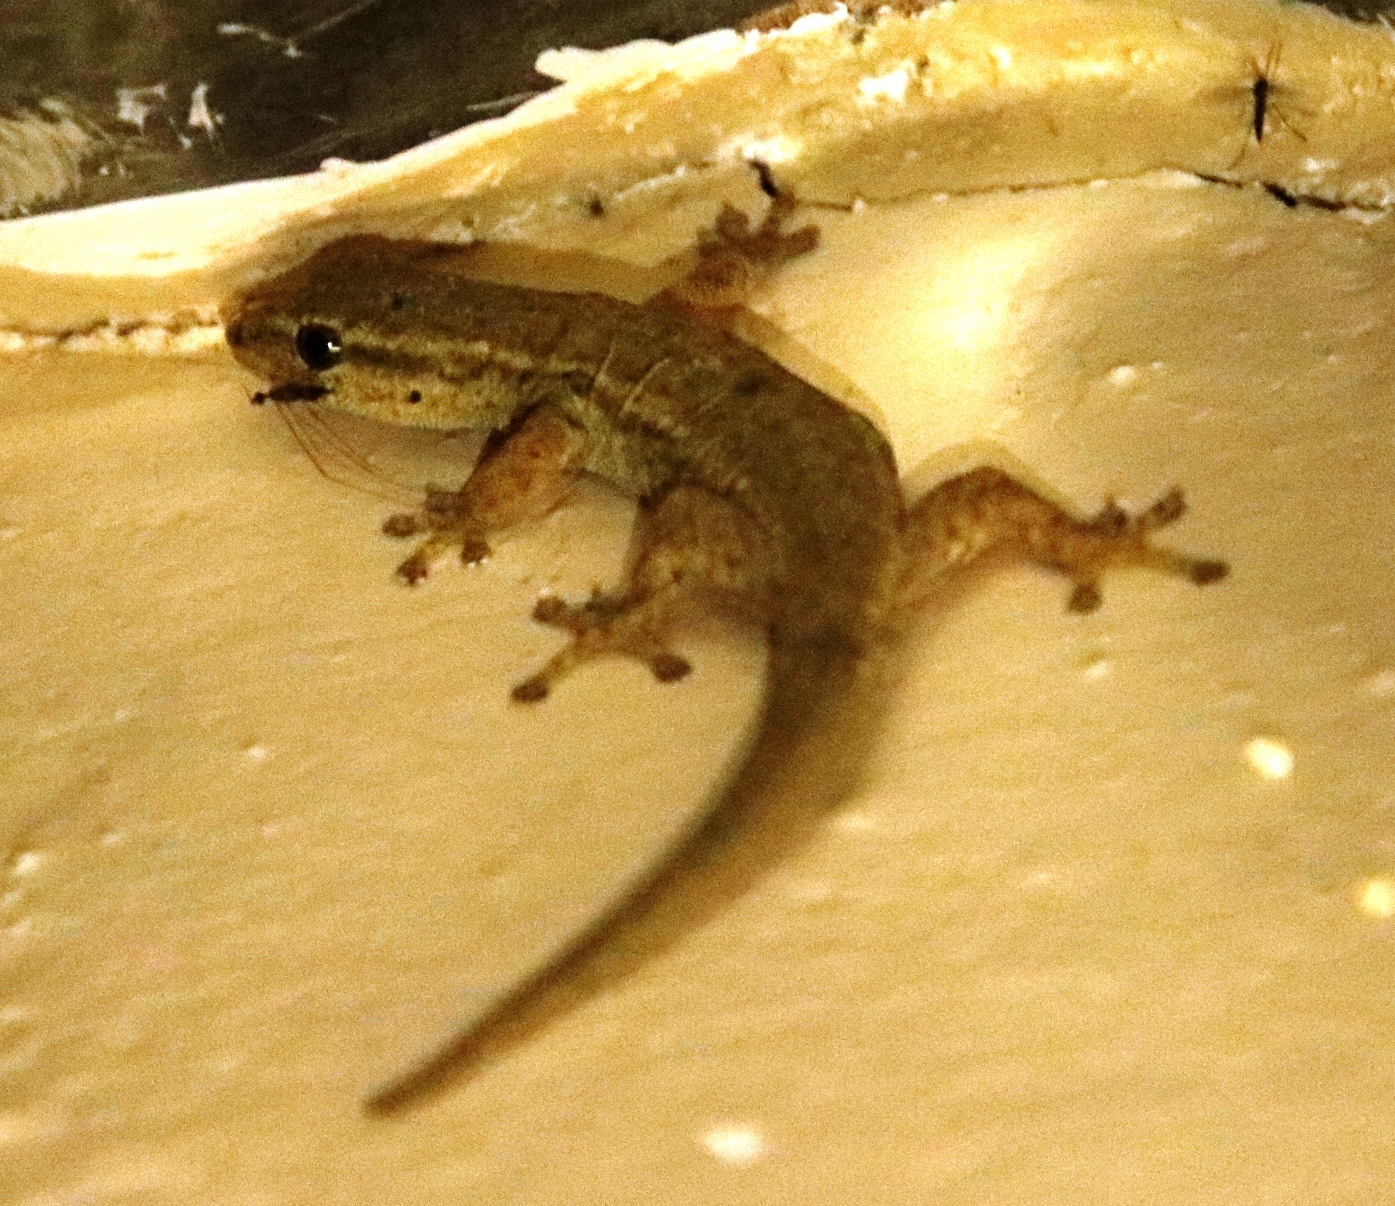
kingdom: Animalia
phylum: Chordata
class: Squamata
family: Gekkonidae
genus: Lygodactylus
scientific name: Lygodactylus capensis
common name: Cape dwarf gecko
